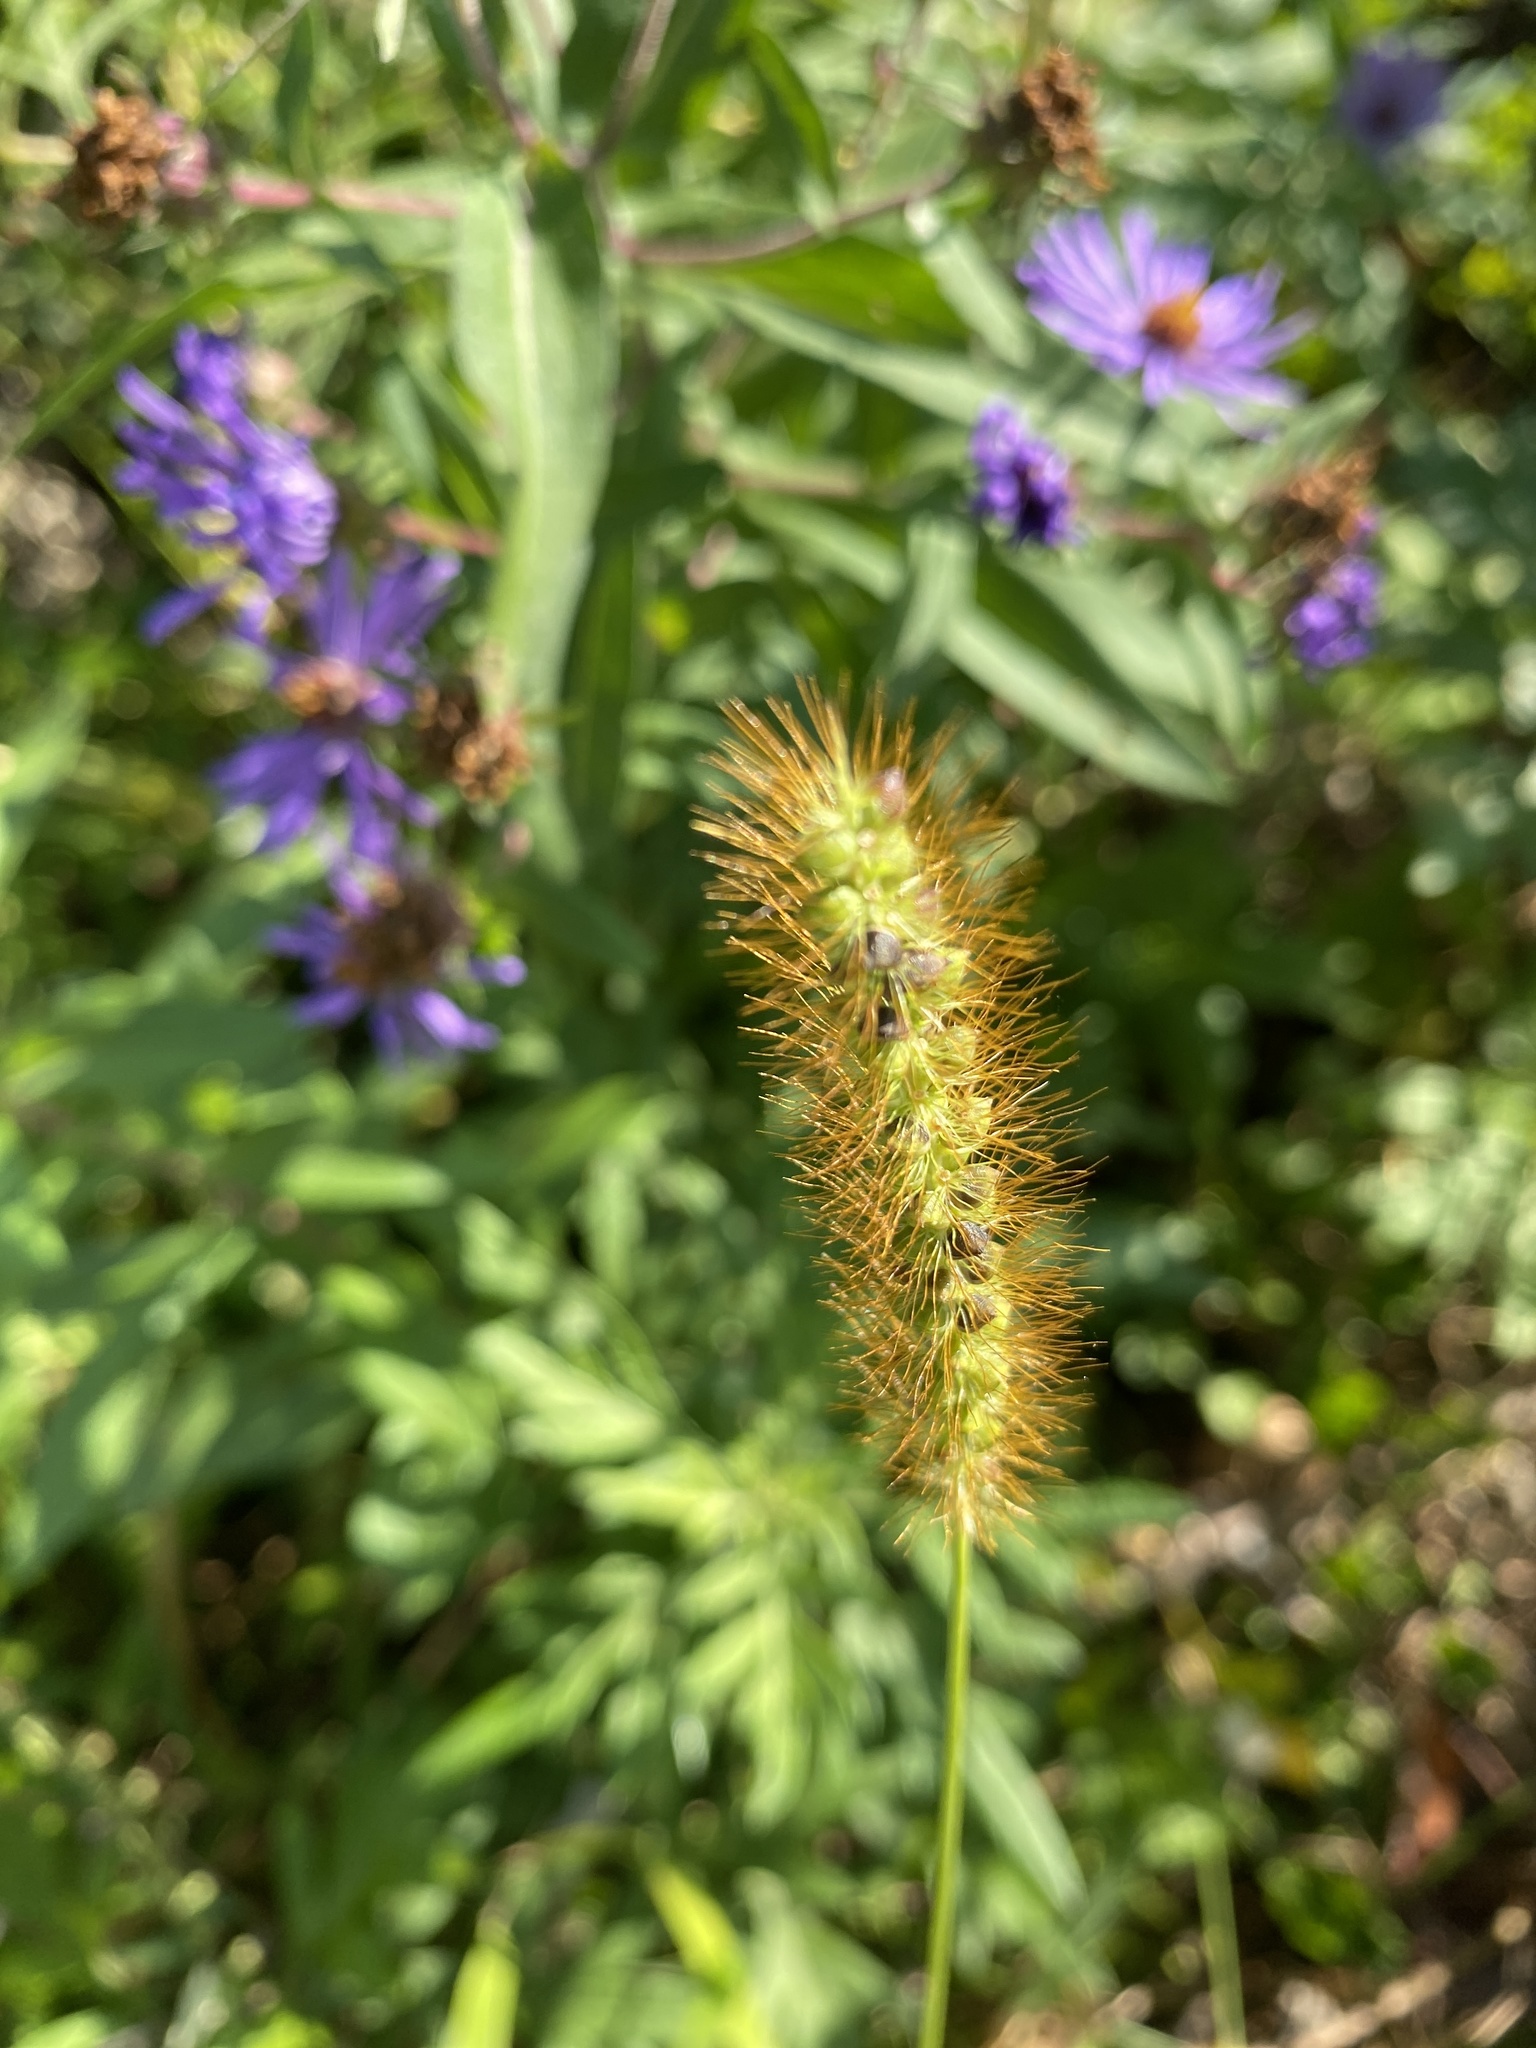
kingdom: Plantae
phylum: Tracheophyta
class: Liliopsida
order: Poales
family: Poaceae
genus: Setaria
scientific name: Setaria pumila
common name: Yellow bristle-grass
